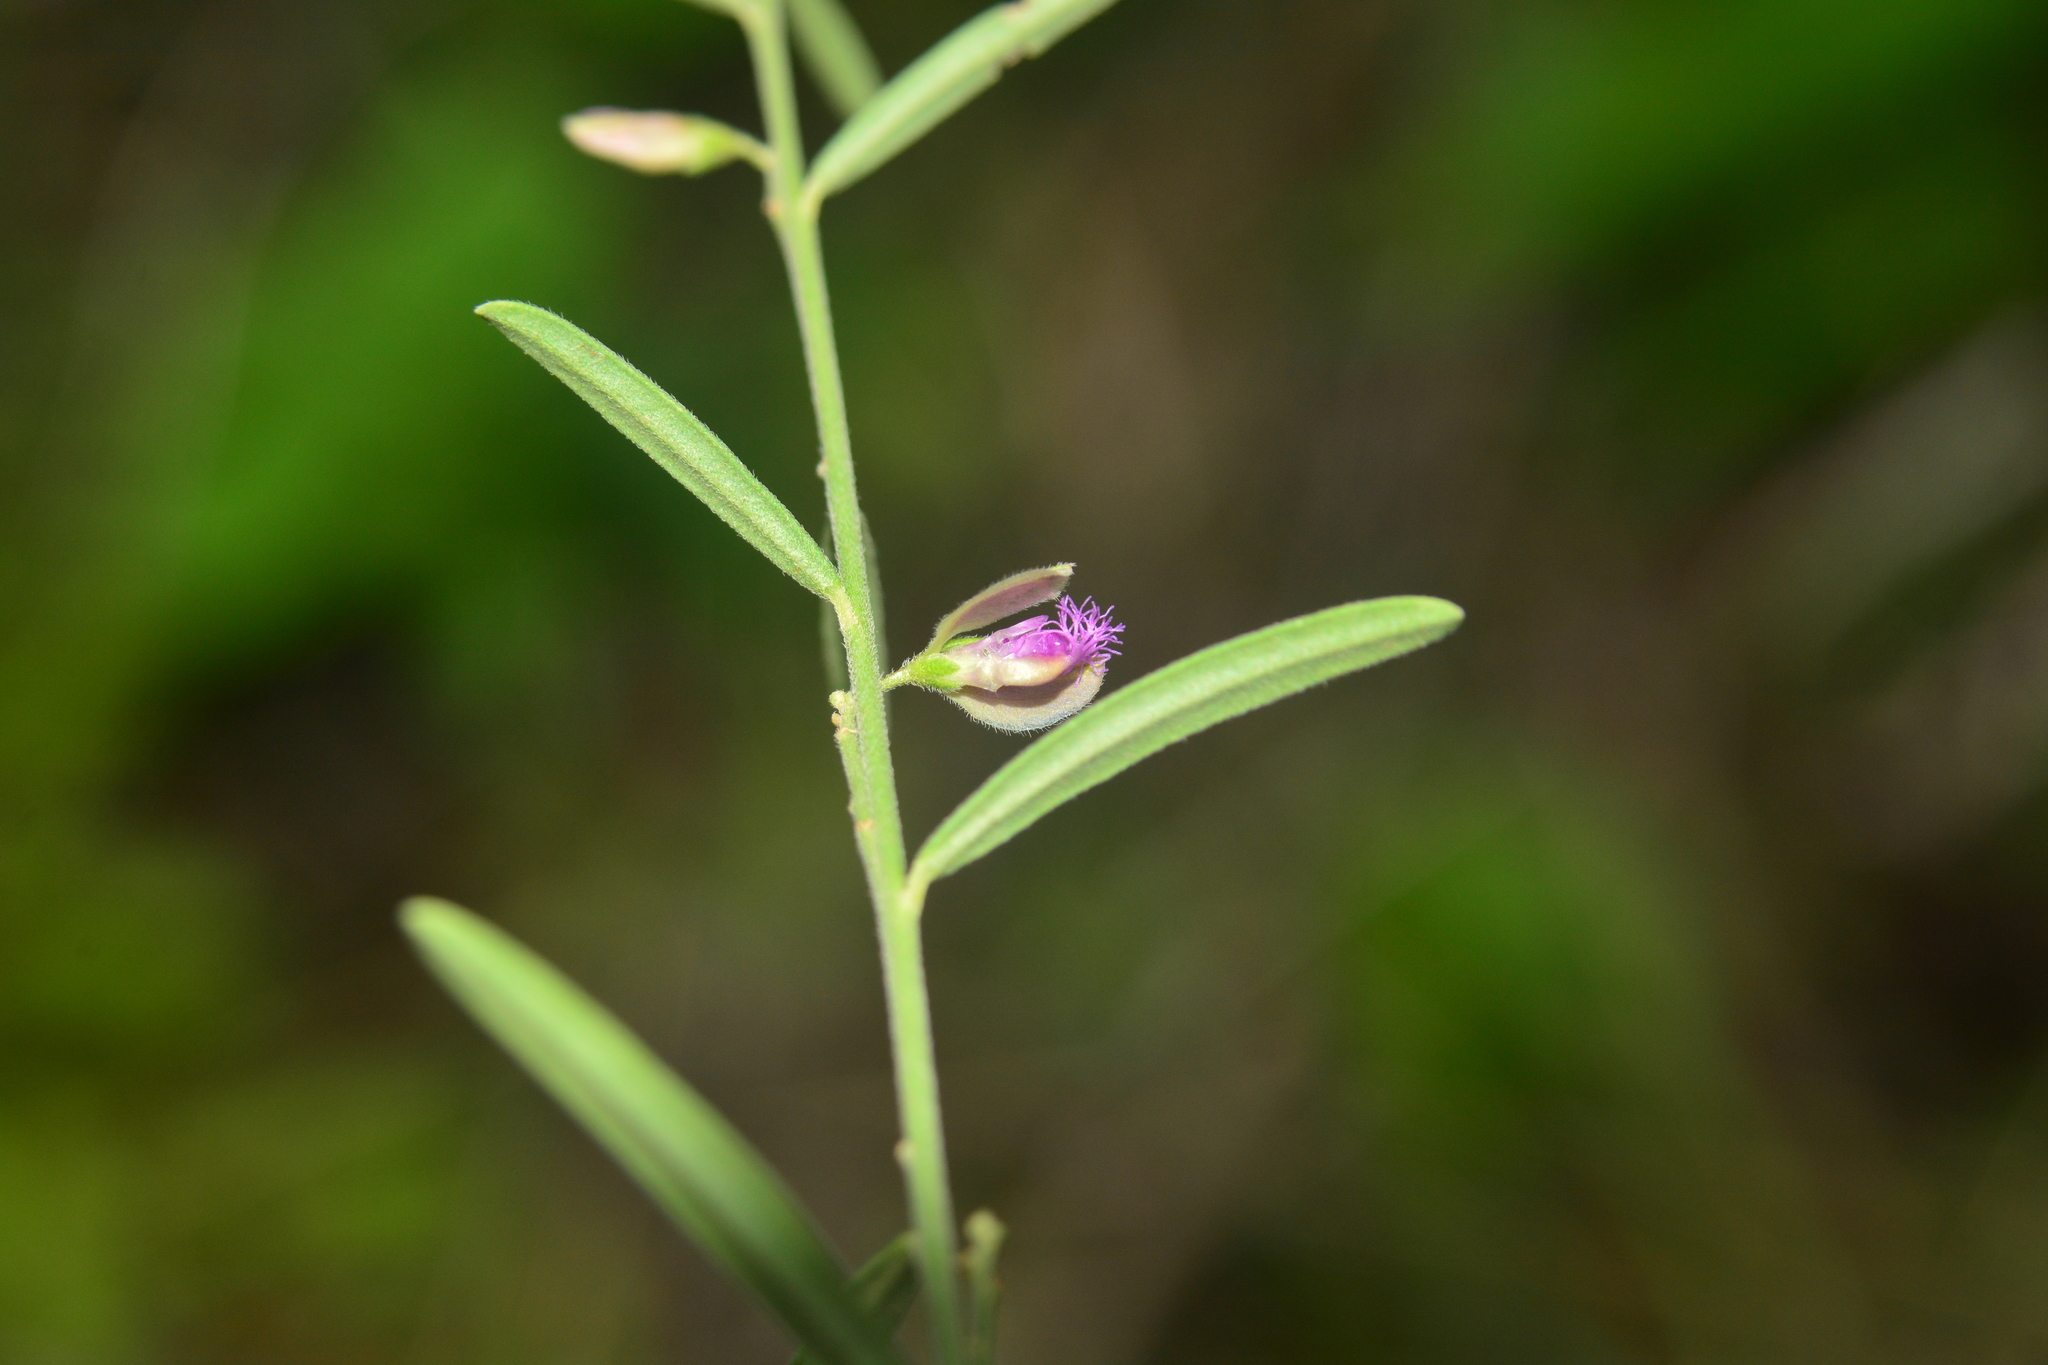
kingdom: Plantae
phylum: Tracheophyta
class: Magnoliopsida
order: Fabales
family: Polygalaceae
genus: Polygala
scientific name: Polygala erioptera
